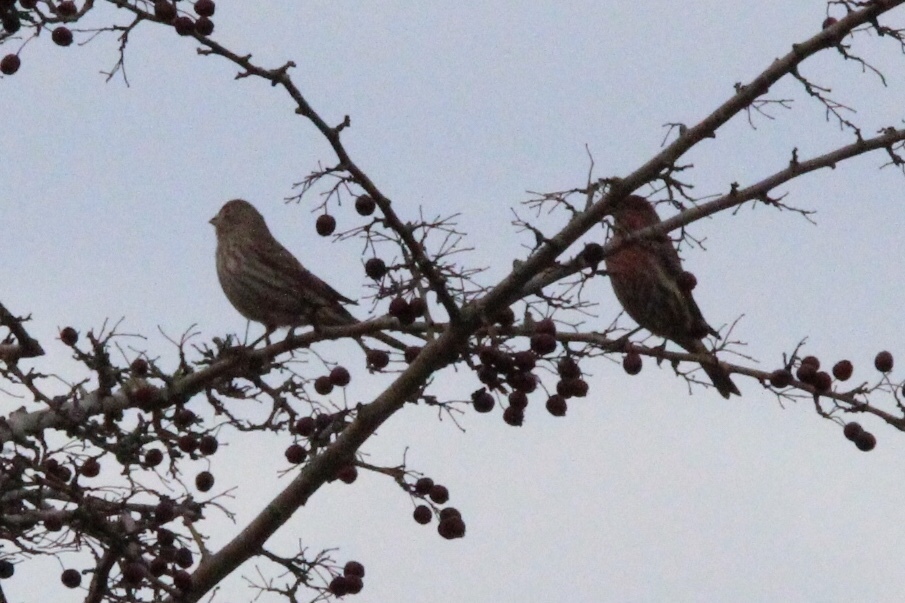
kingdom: Animalia
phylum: Chordata
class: Aves
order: Passeriformes
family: Fringillidae
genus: Haemorhous
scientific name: Haemorhous mexicanus
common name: House finch
